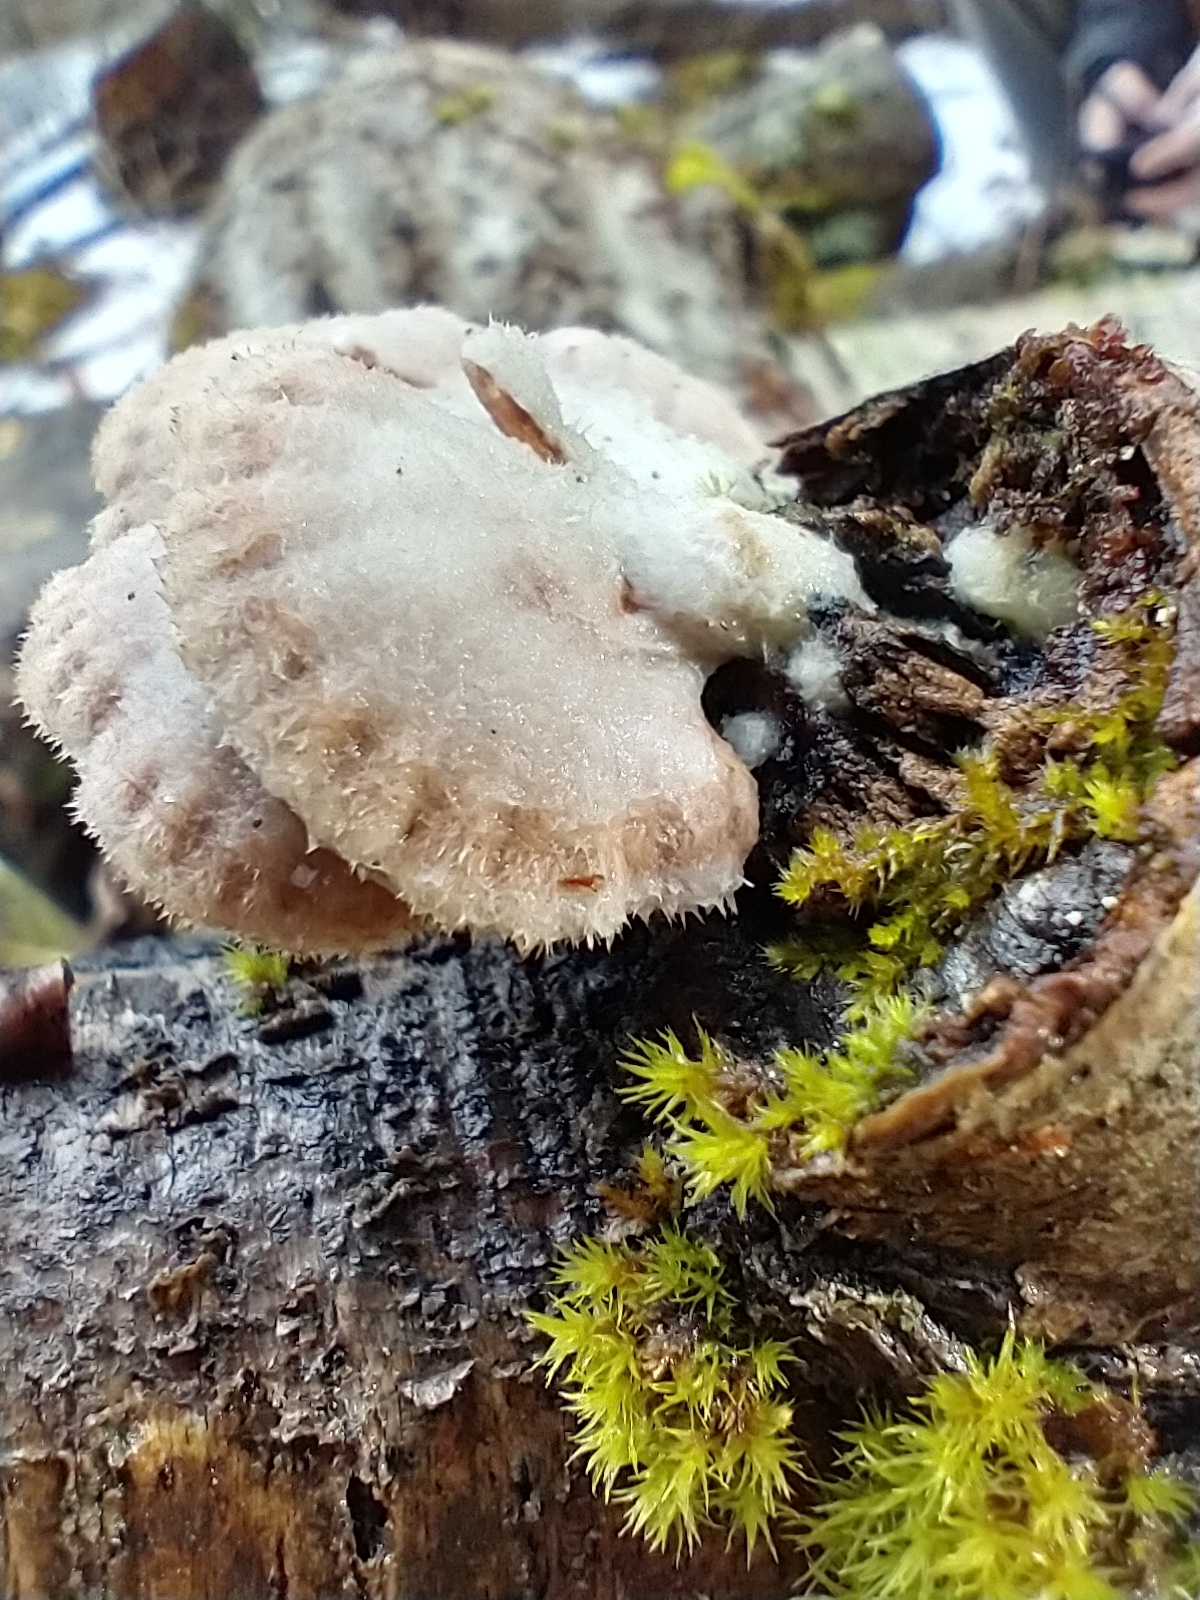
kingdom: Fungi
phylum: Basidiomycota
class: Agaricomycetes
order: Agaricales
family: Schizophyllaceae
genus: Schizophyllum
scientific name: Schizophyllum commune
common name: Common porecrust
